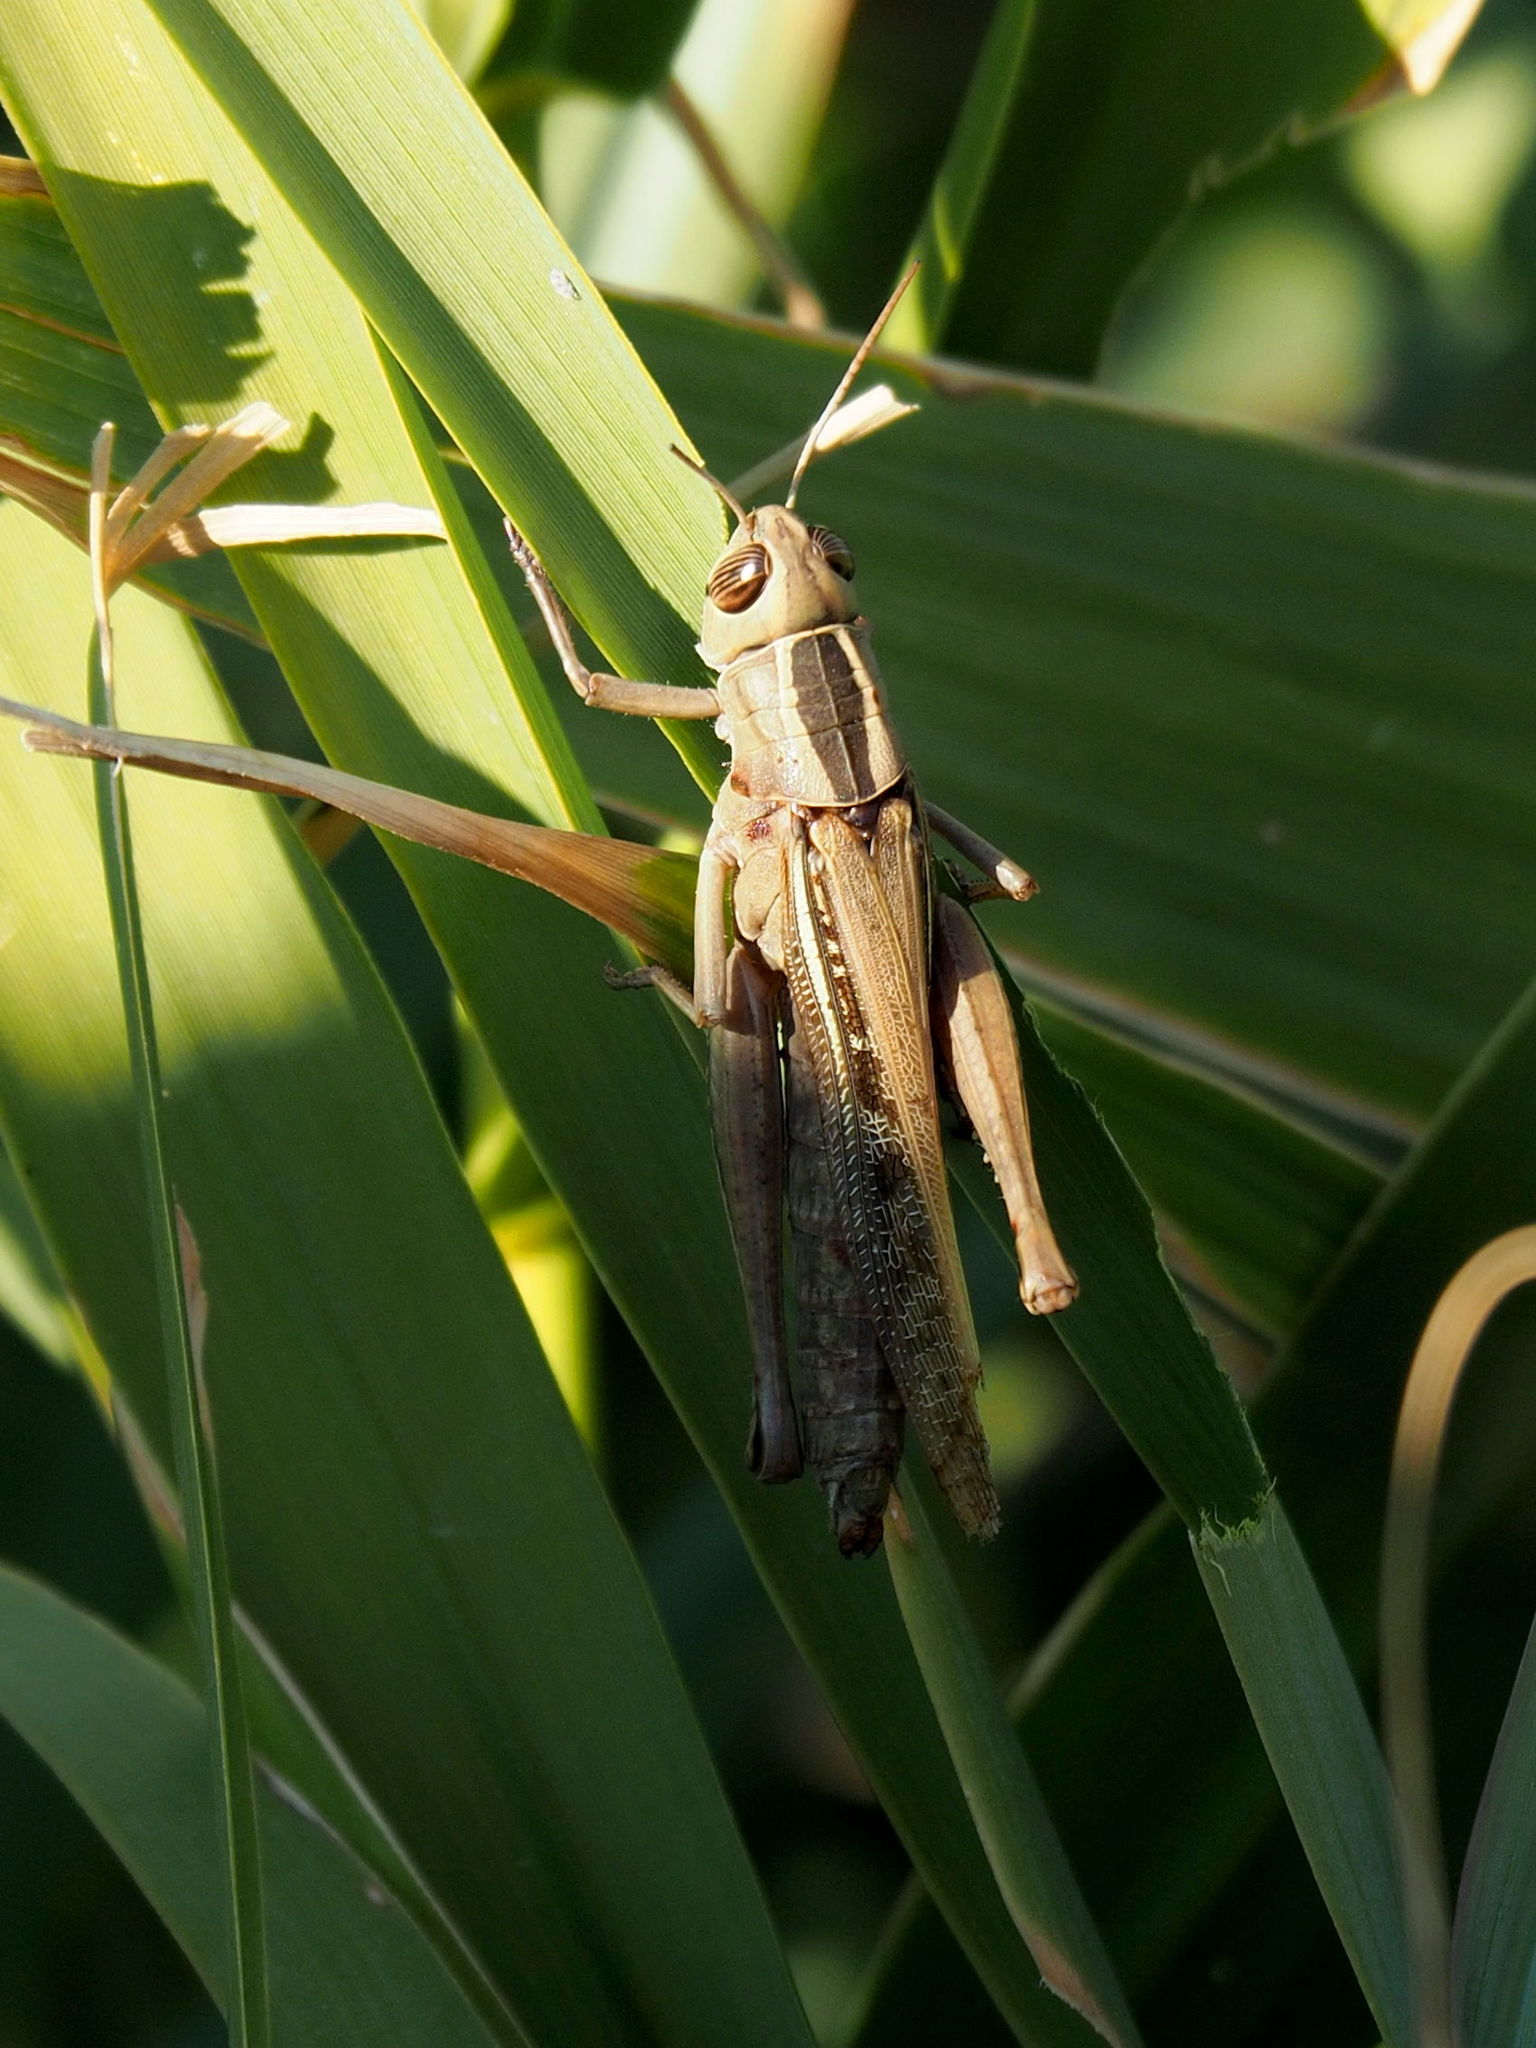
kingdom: Animalia
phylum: Arthropoda
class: Insecta
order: Orthoptera
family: Acrididae
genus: Eyprepocnemis
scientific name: Eyprepocnemis plorans
